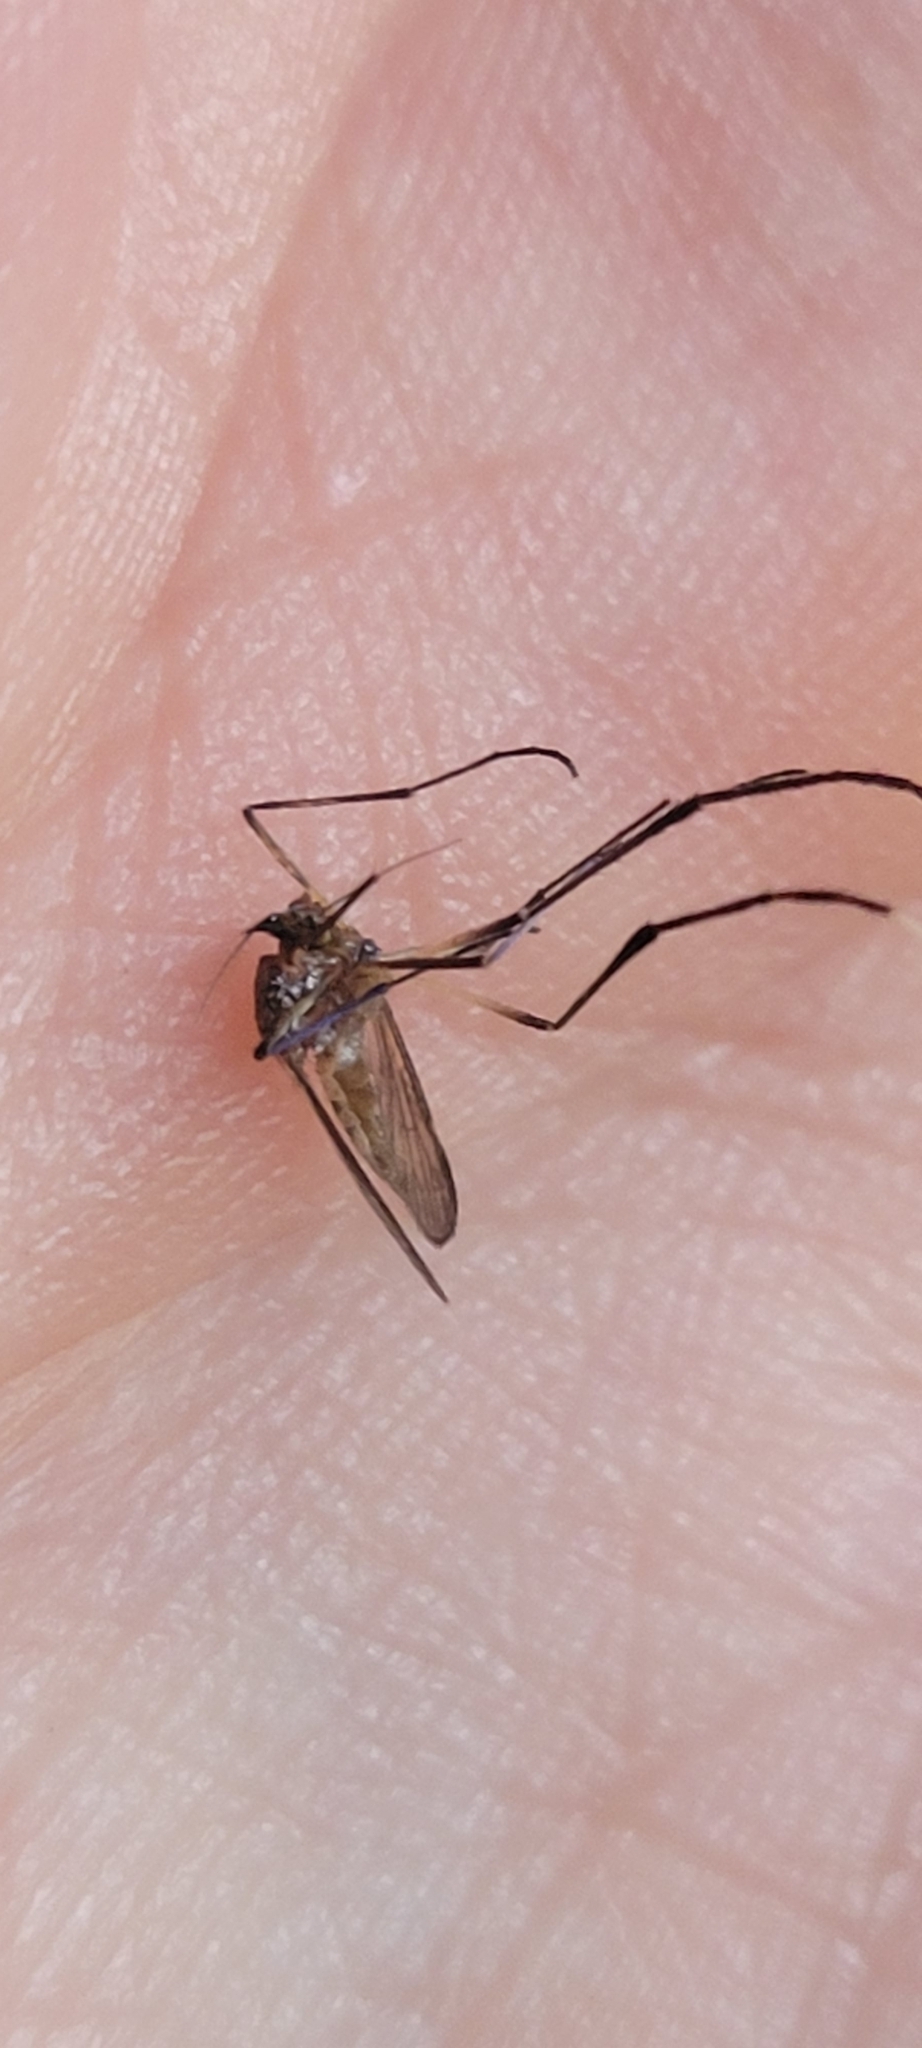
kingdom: Animalia
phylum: Arthropoda
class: Insecta
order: Diptera
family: Culicidae
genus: Psorophora
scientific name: Psorophora ferox
